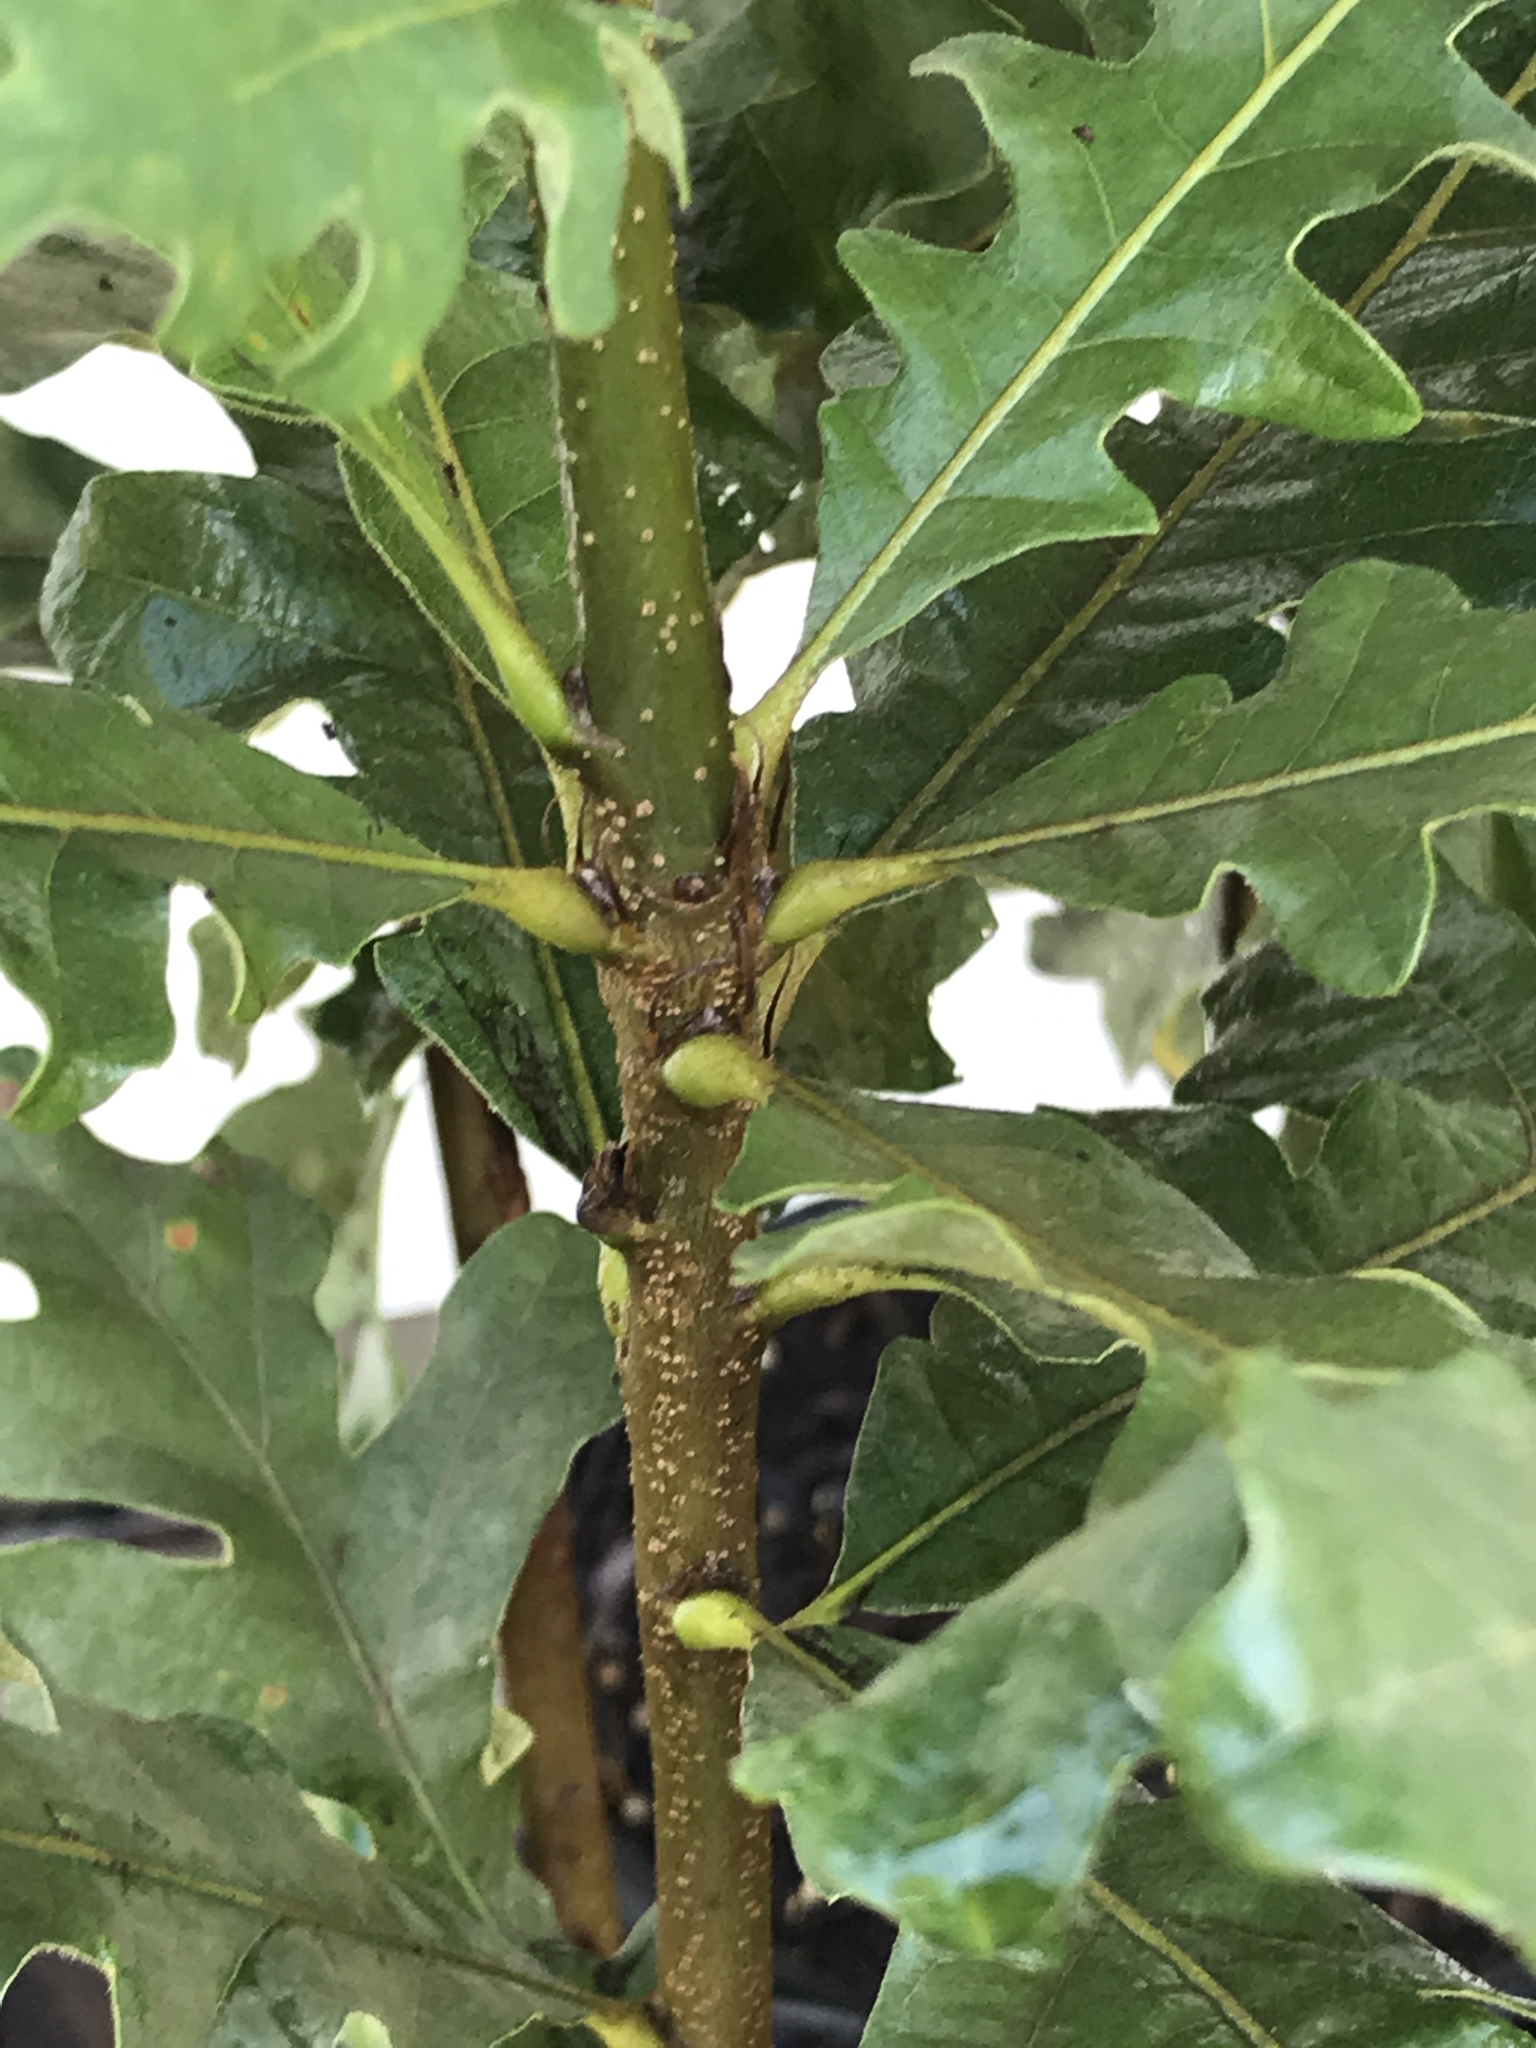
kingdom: Plantae
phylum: Tracheophyta
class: Magnoliopsida
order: Fagales
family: Fagaceae
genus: Quercus
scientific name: Quercus macrocarpa
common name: Bur oak
